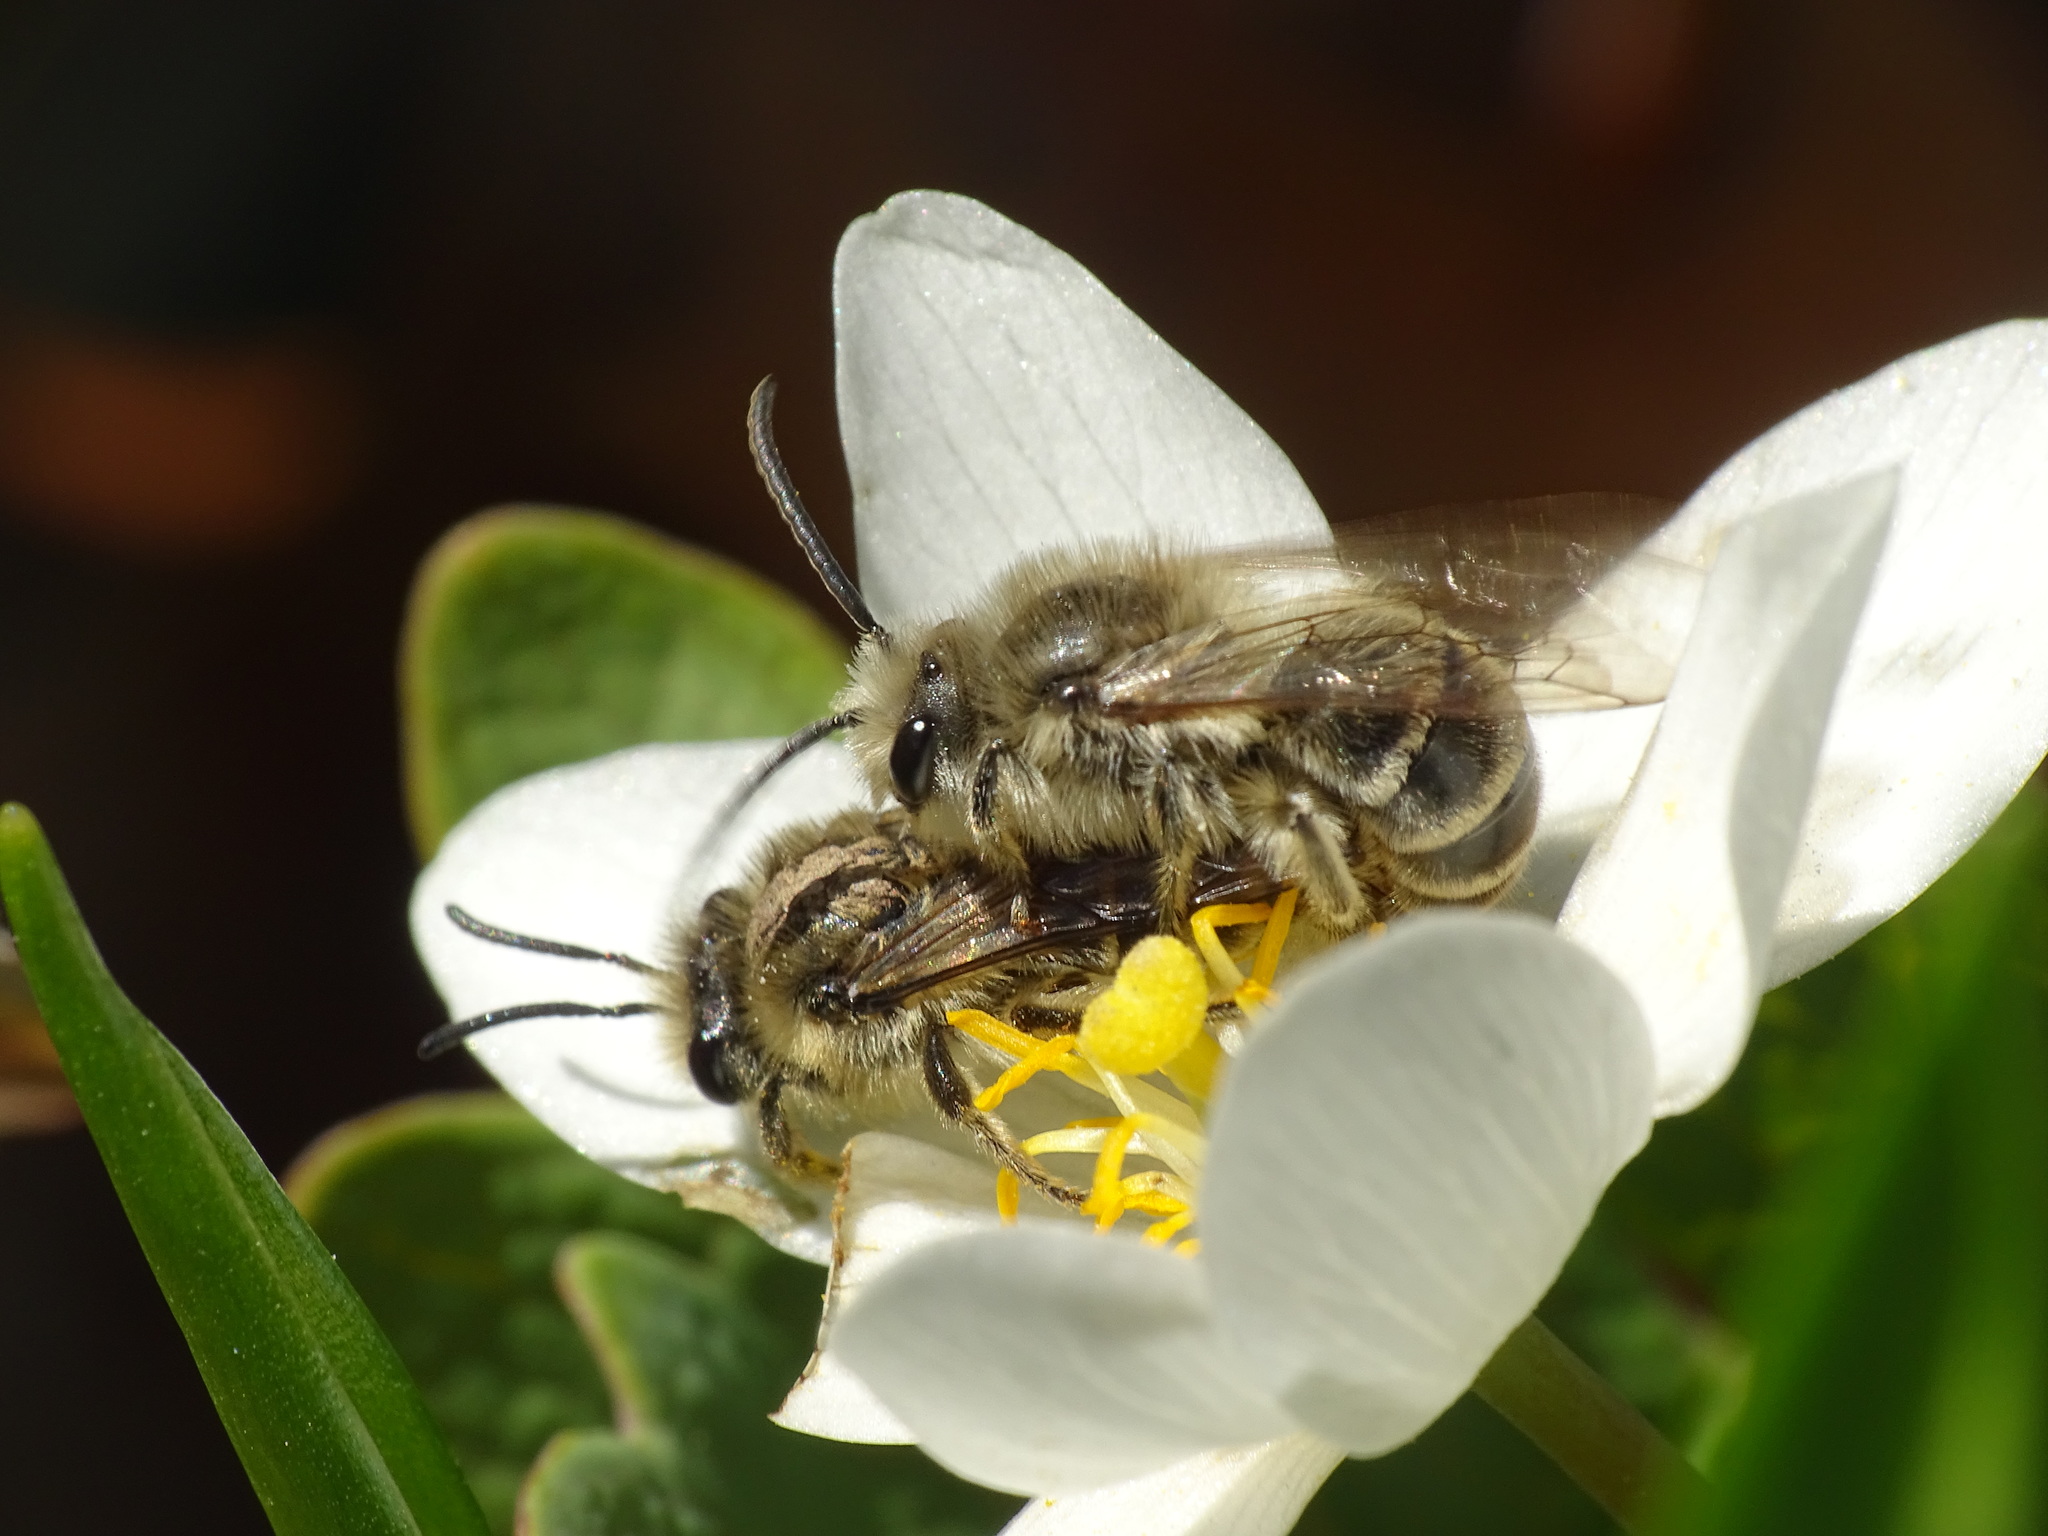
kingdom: Animalia
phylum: Arthropoda
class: Insecta
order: Hymenoptera
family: Colletidae
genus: Colletes
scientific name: Colletes inaequalis
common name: Unequal cellophane bee
